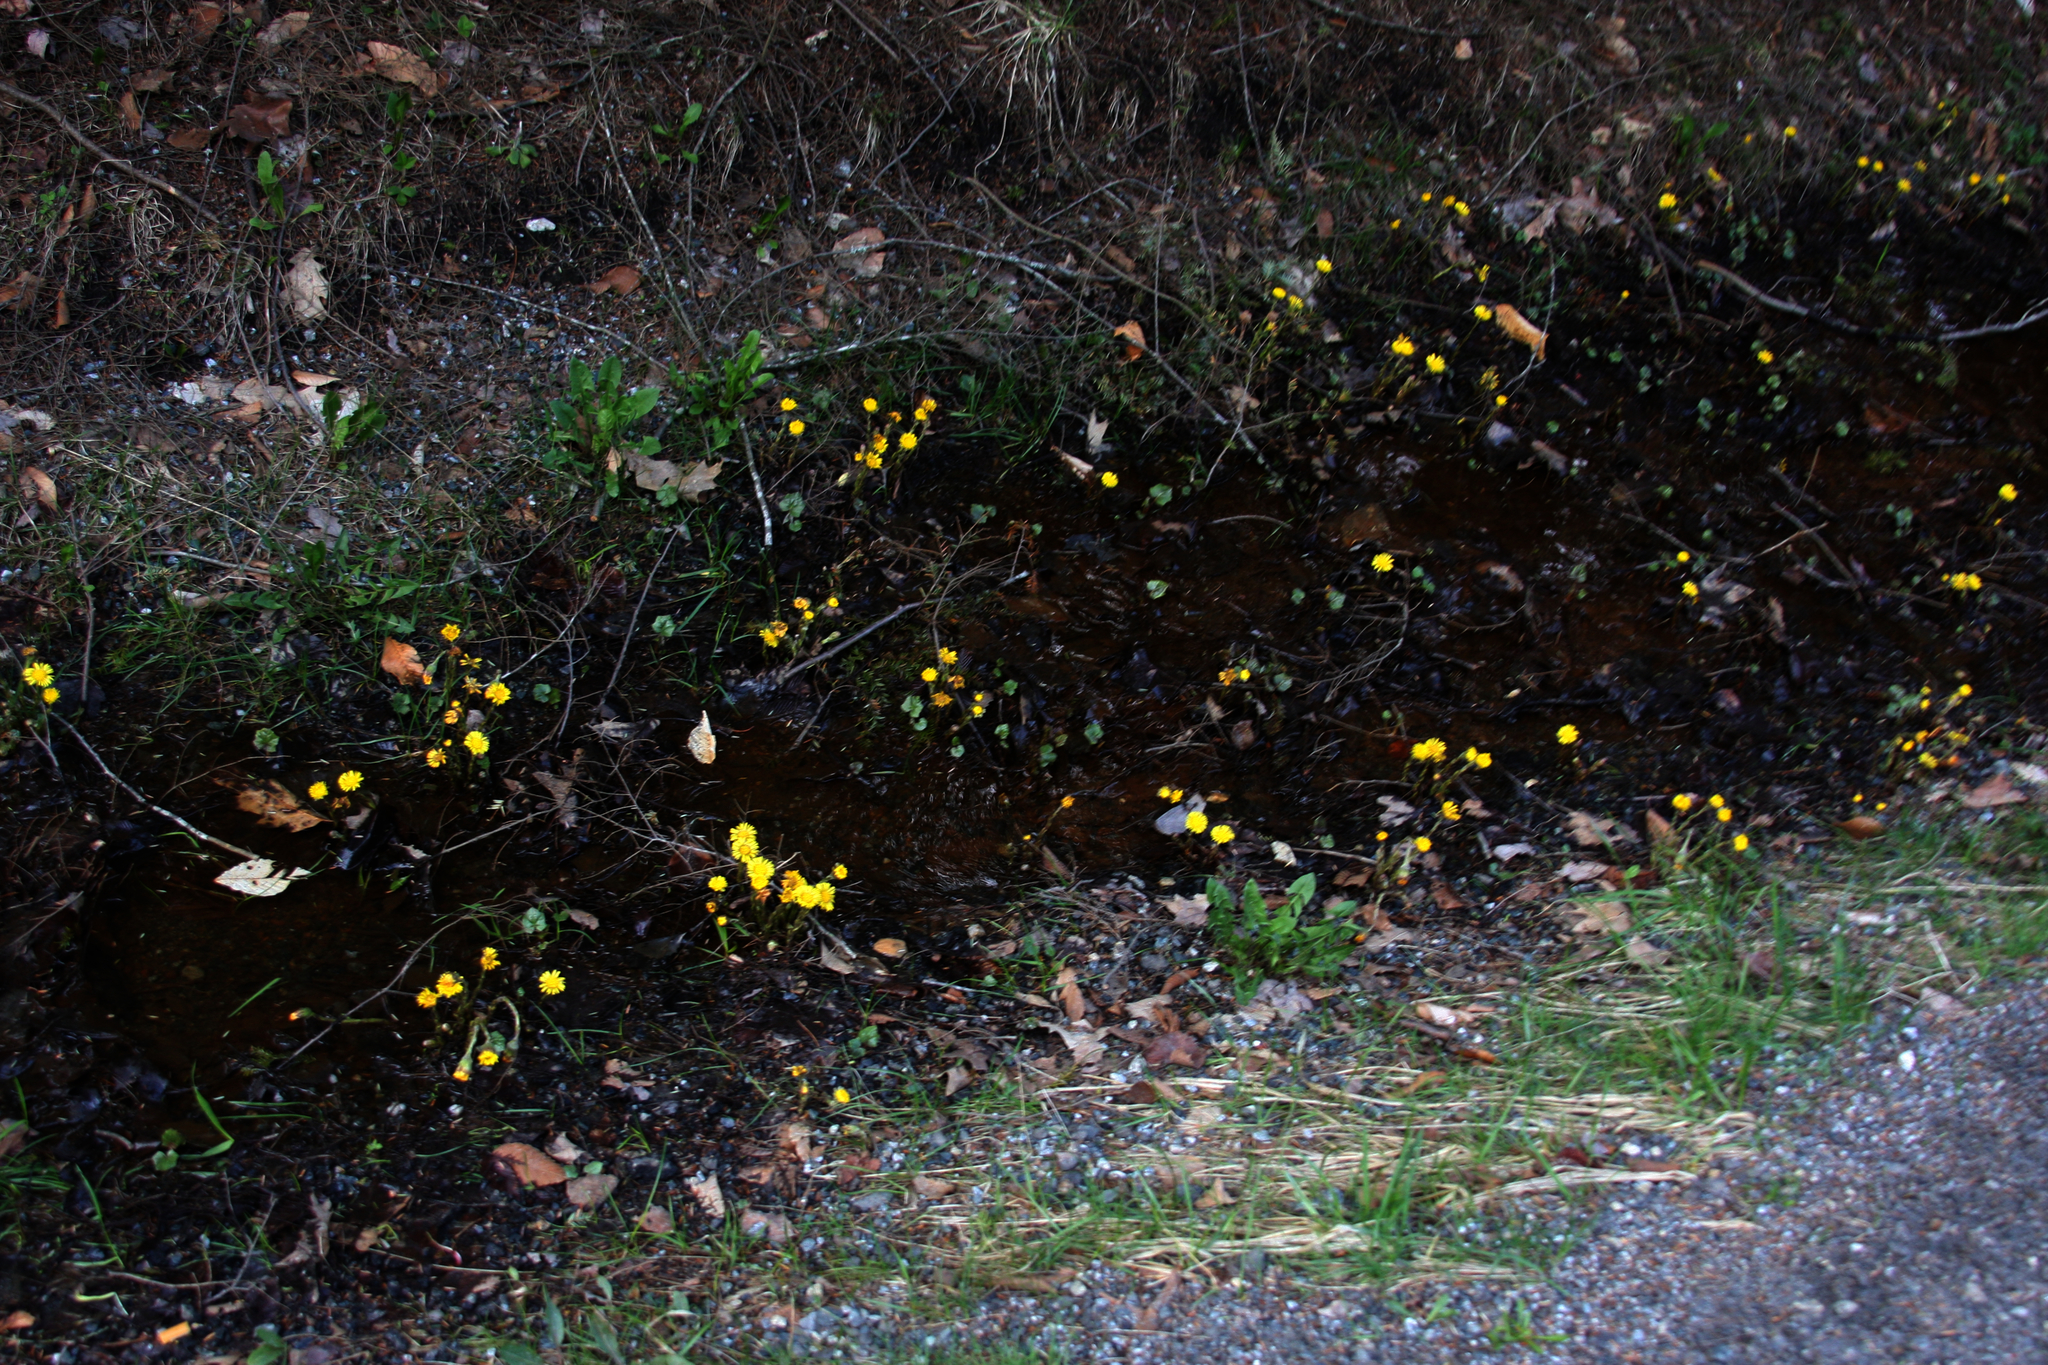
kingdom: Plantae
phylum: Tracheophyta
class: Magnoliopsida
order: Asterales
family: Asteraceae
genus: Tussilago
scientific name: Tussilago farfara
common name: Coltsfoot
